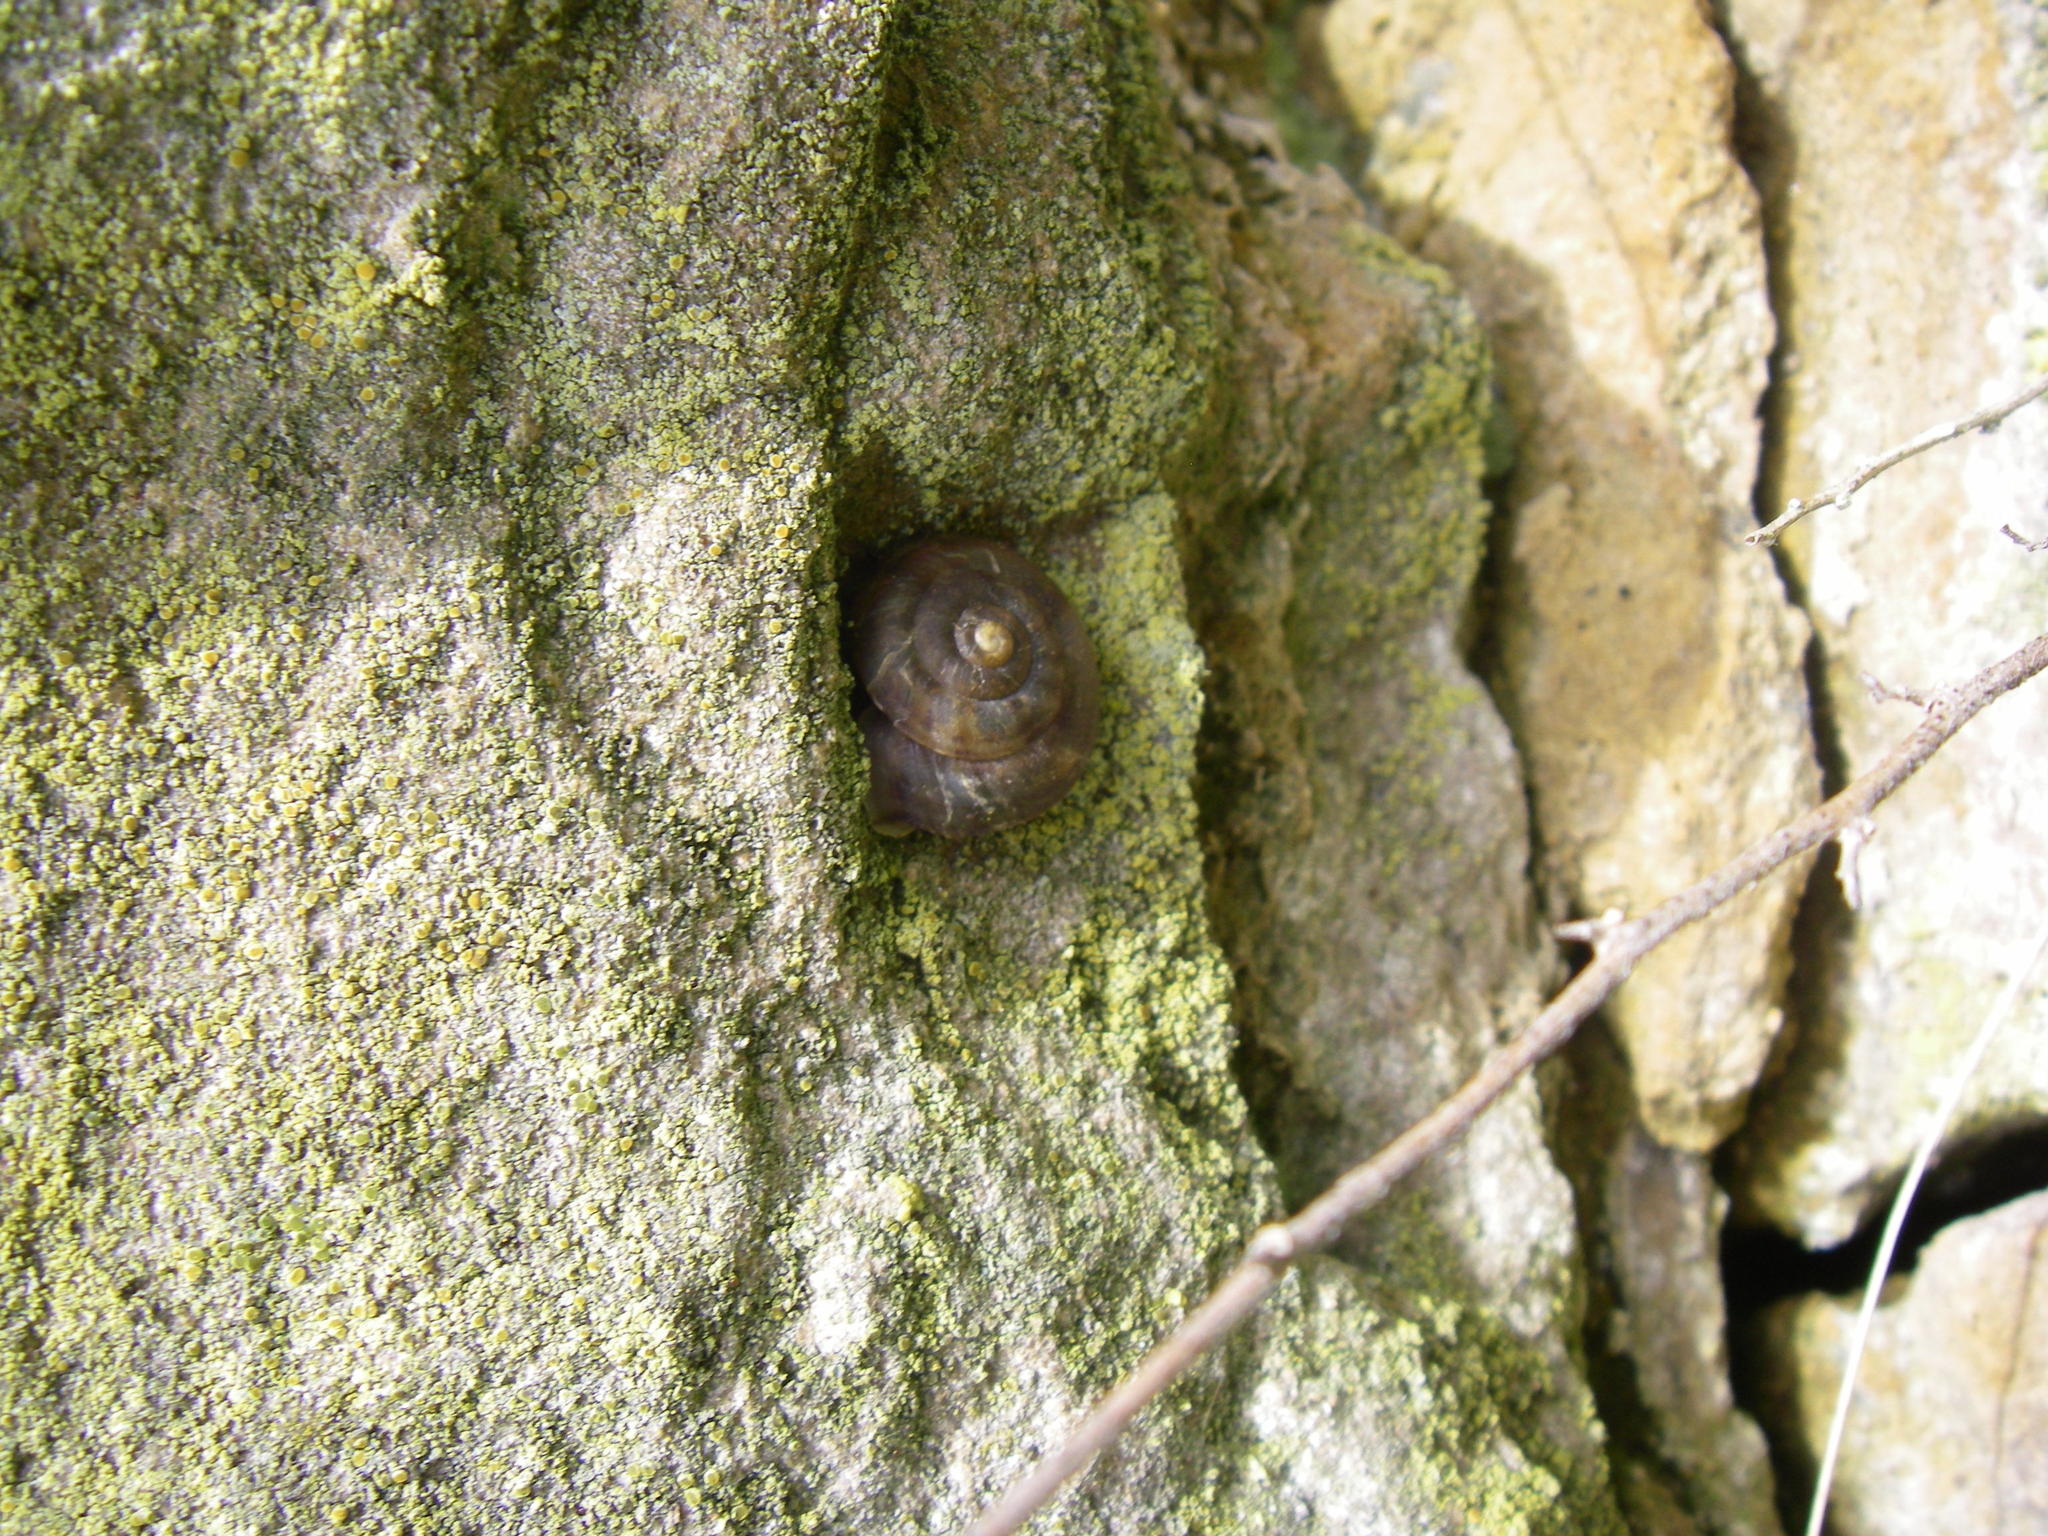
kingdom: Animalia
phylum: Mollusca
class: Gastropoda
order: Stylommatophora
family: Helicidae
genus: Helicigona
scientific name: Helicigona lapicida
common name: Lapidary snail
